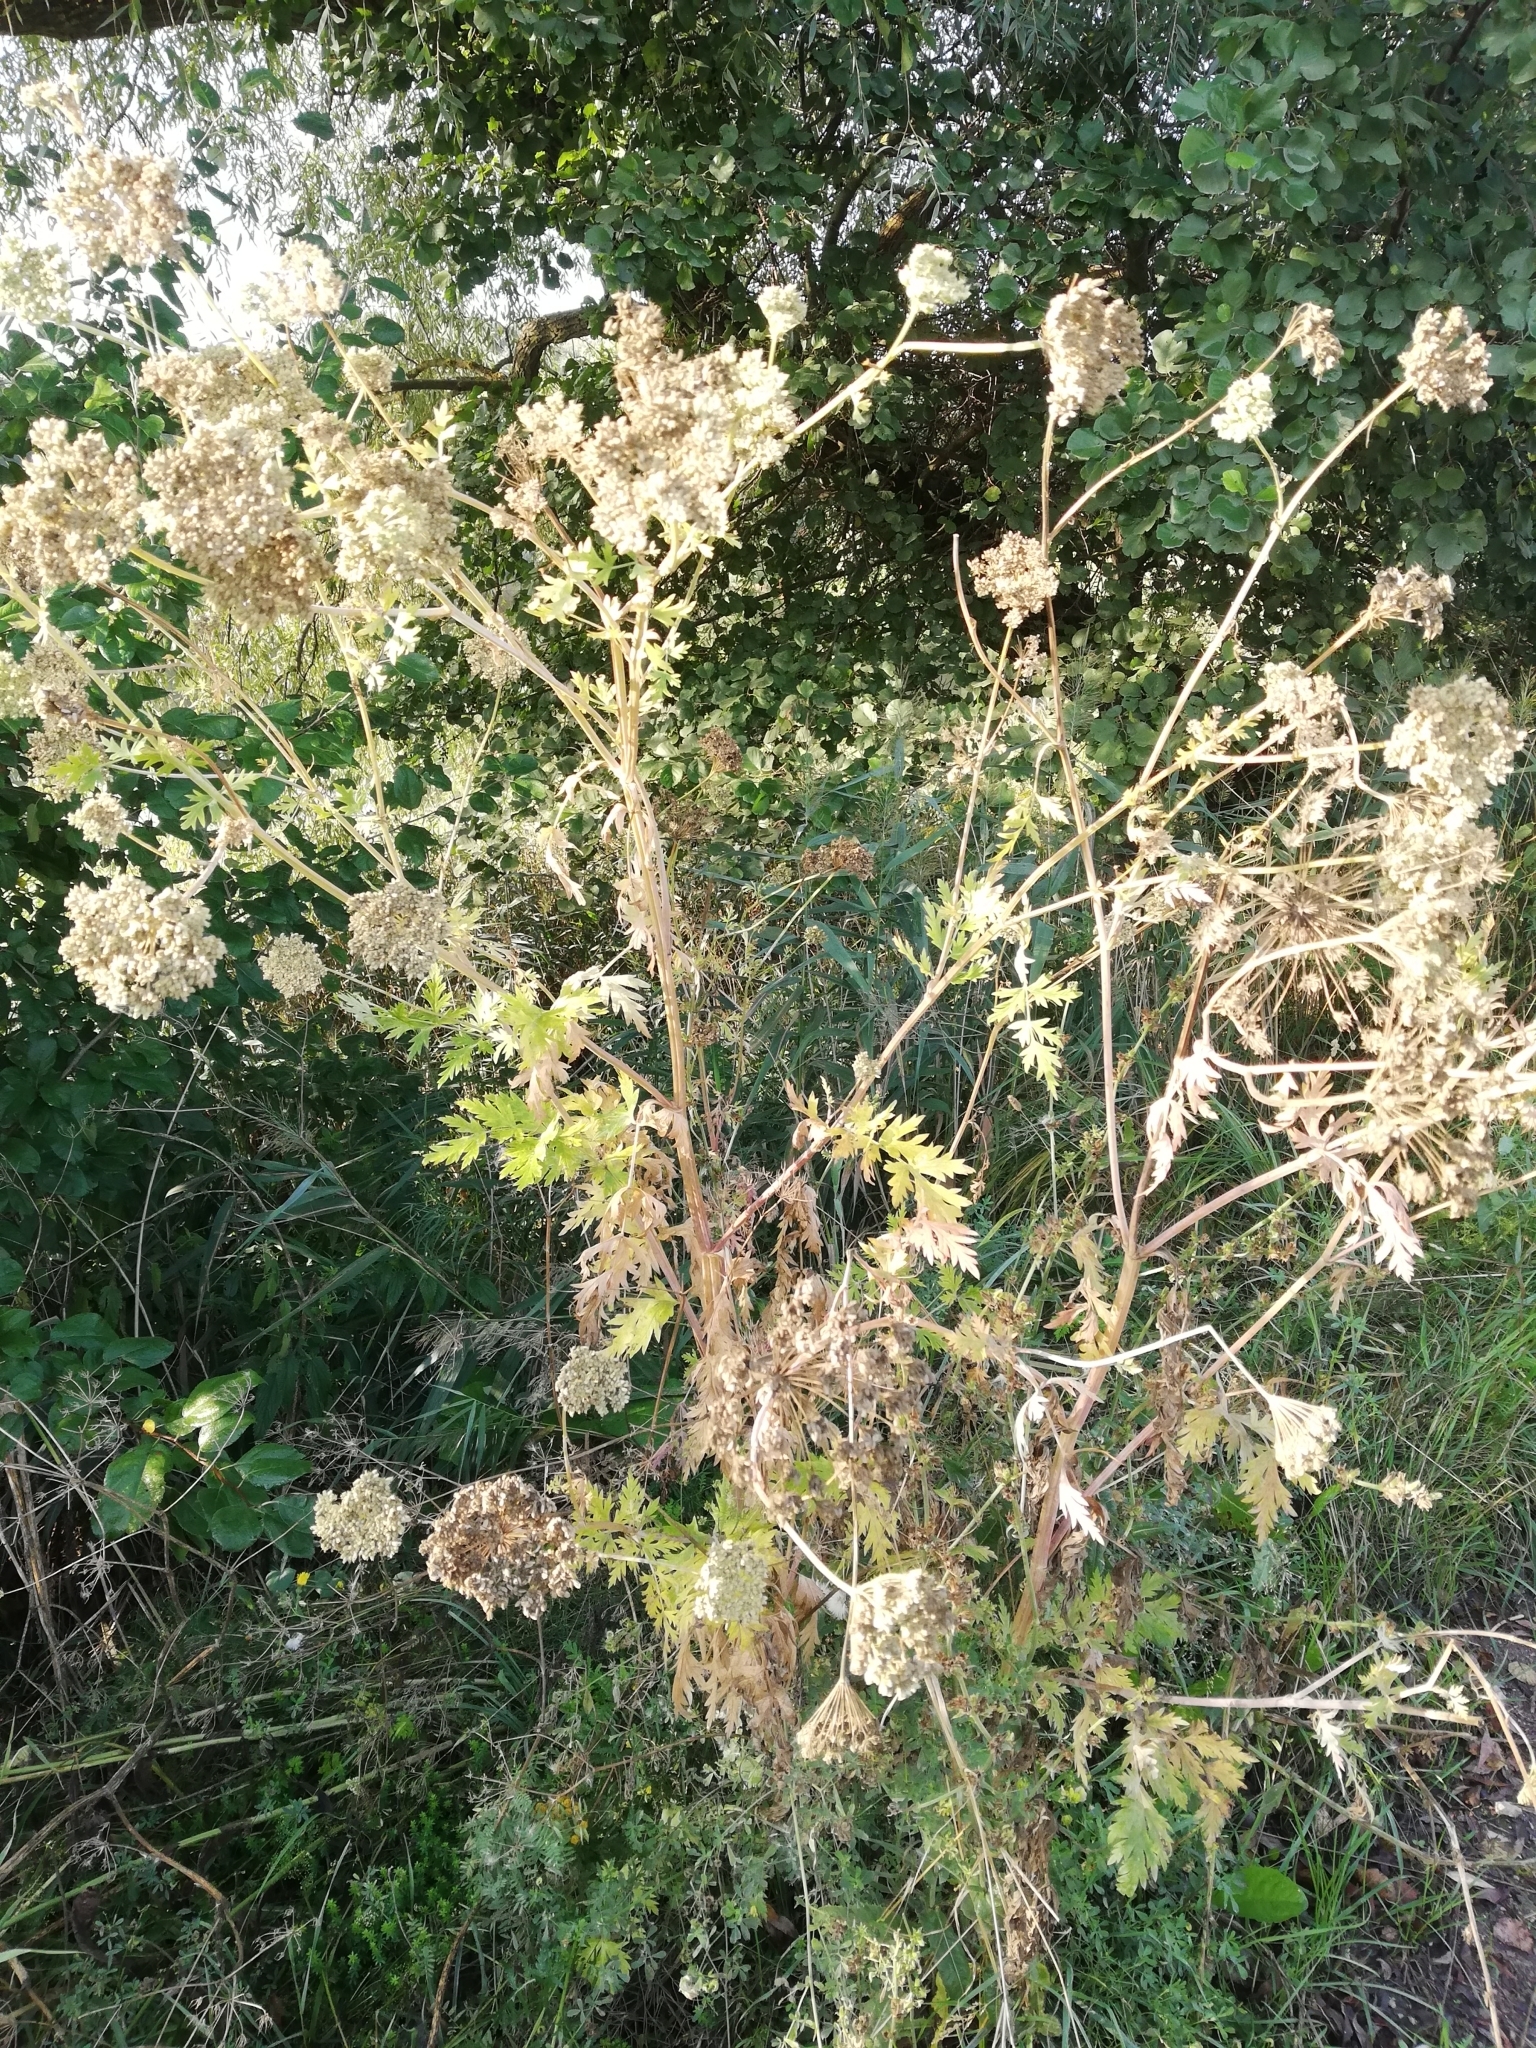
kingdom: Plantae
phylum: Tracheophyta
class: Magnoliopsida
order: Apiales
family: Apiaceae
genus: Seseli
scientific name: Seseli libanotis
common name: Mooncarrot
